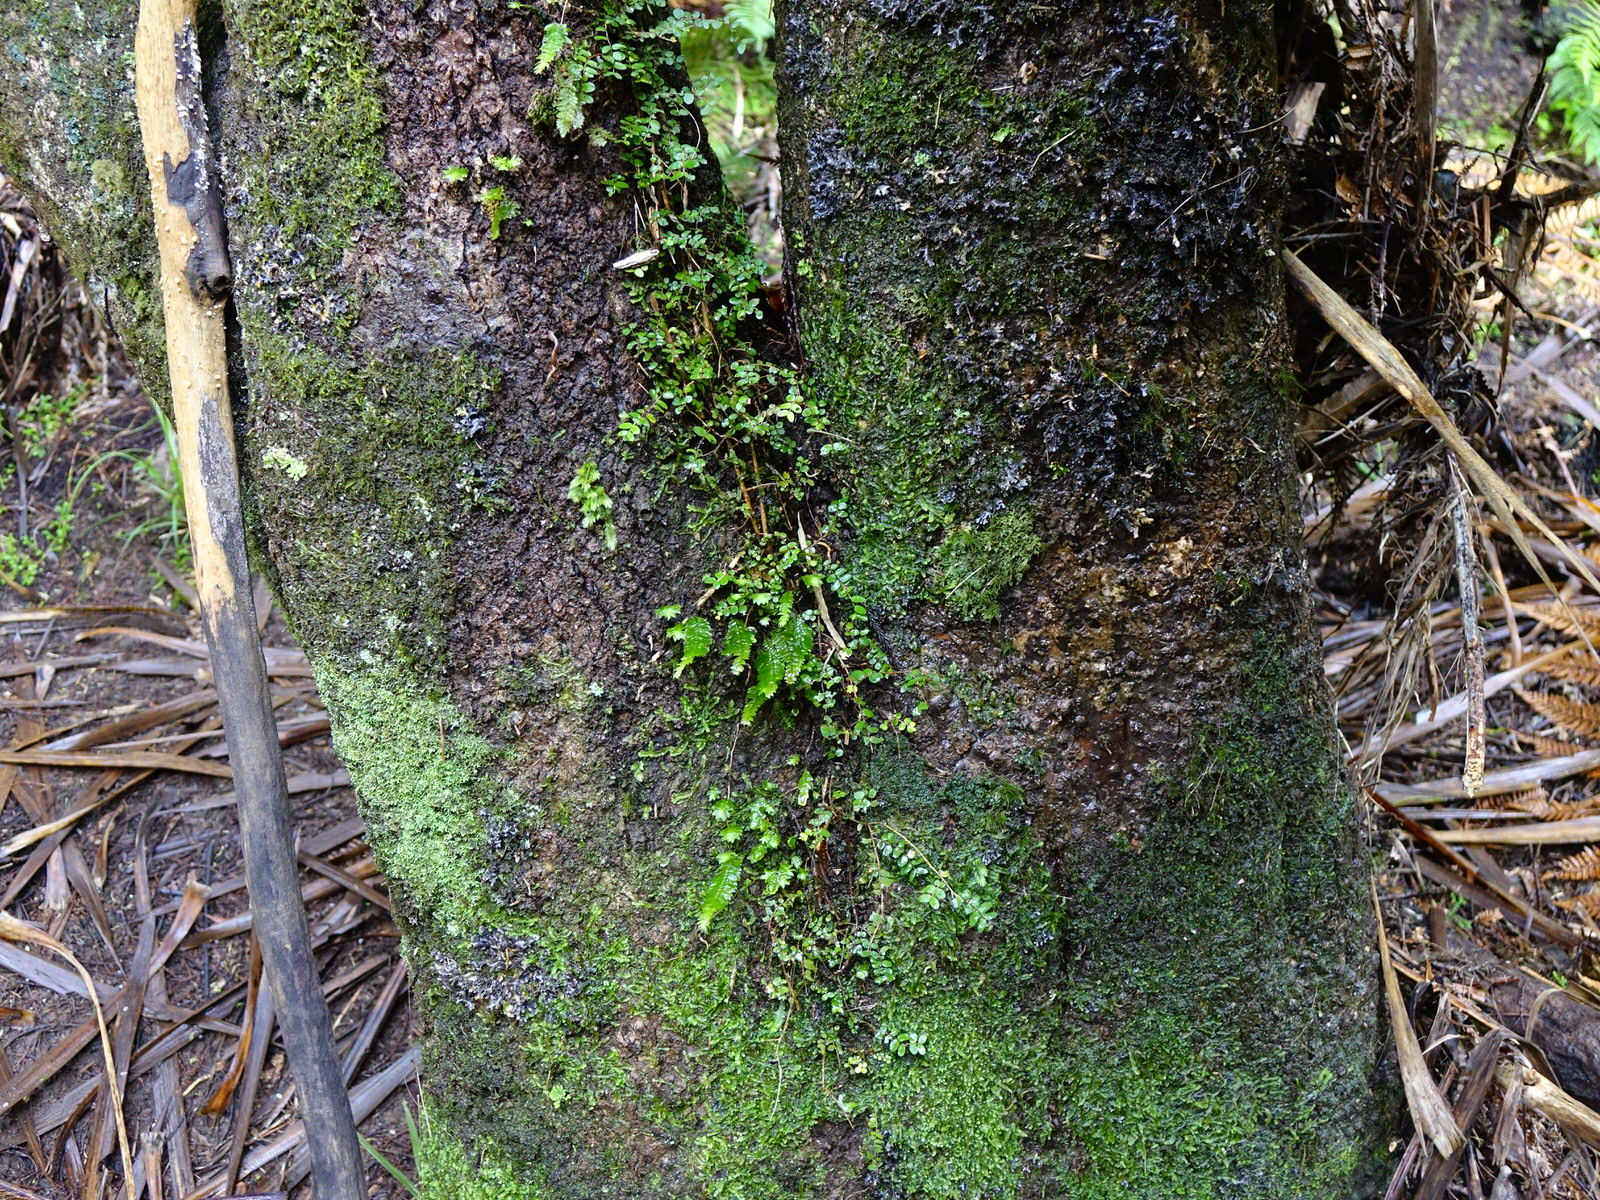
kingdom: Plantae
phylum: Bryophyta
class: Bryopsida
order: Hypopterygiales
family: Hypopterygiaceae
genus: Cyathophorum
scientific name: Cyathophorum bulbosum
